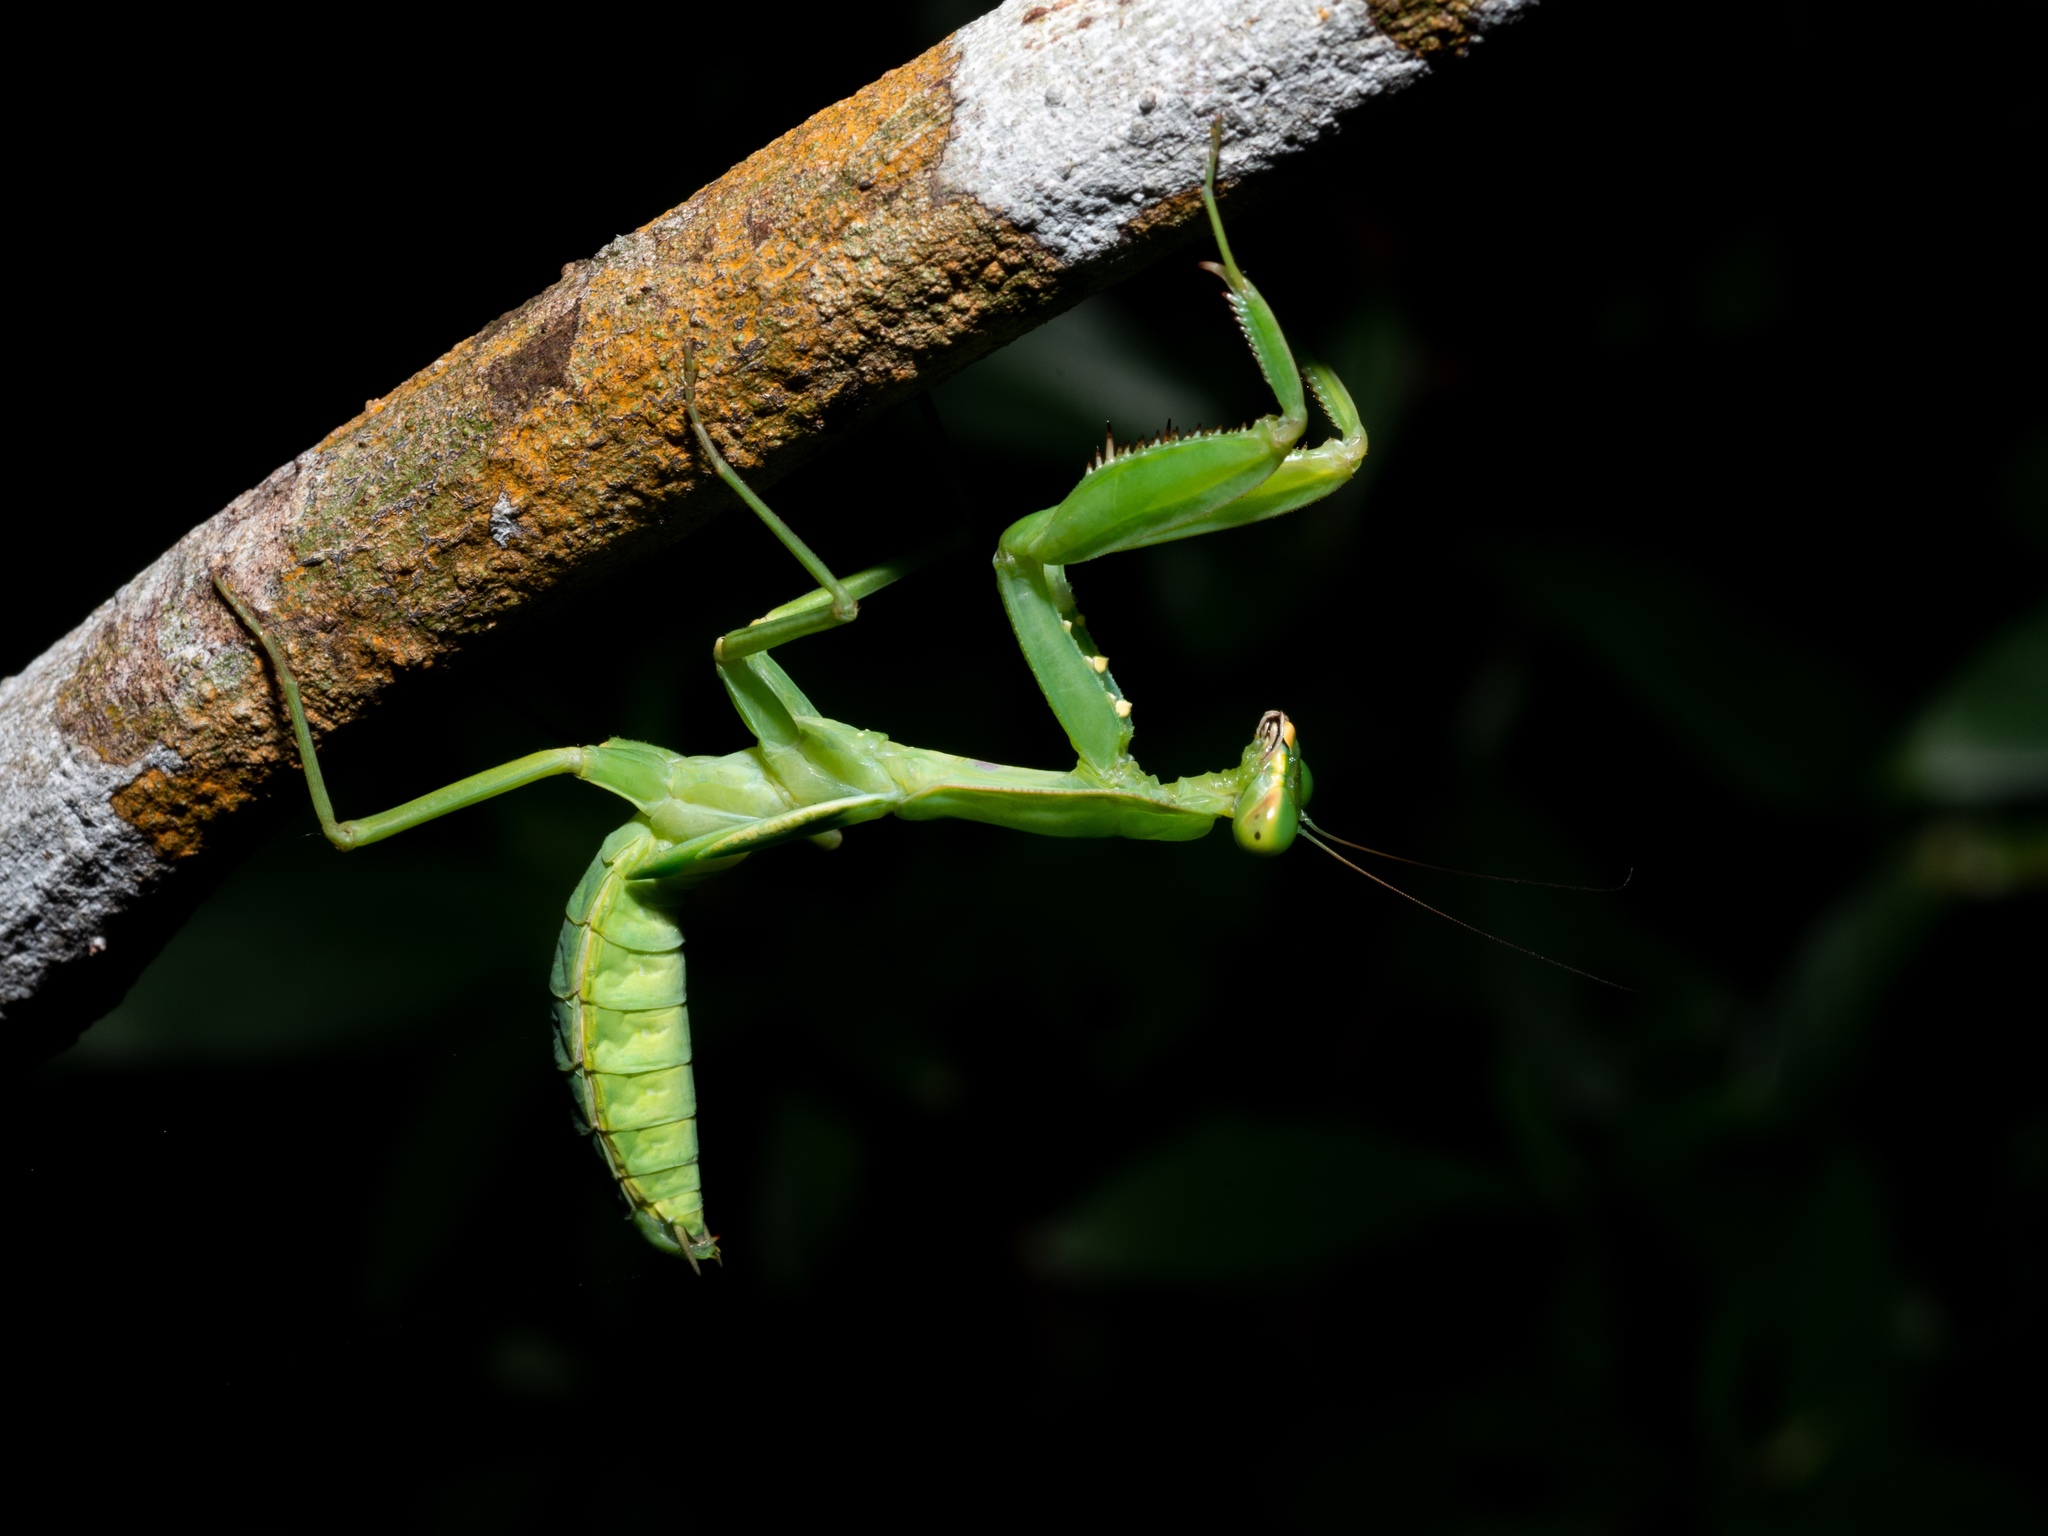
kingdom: Animalia
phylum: Arthropoda
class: Insecta
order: Mantodea
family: Mantidae
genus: Hierodula
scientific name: Hierodula patellifera
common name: Asian mantis
